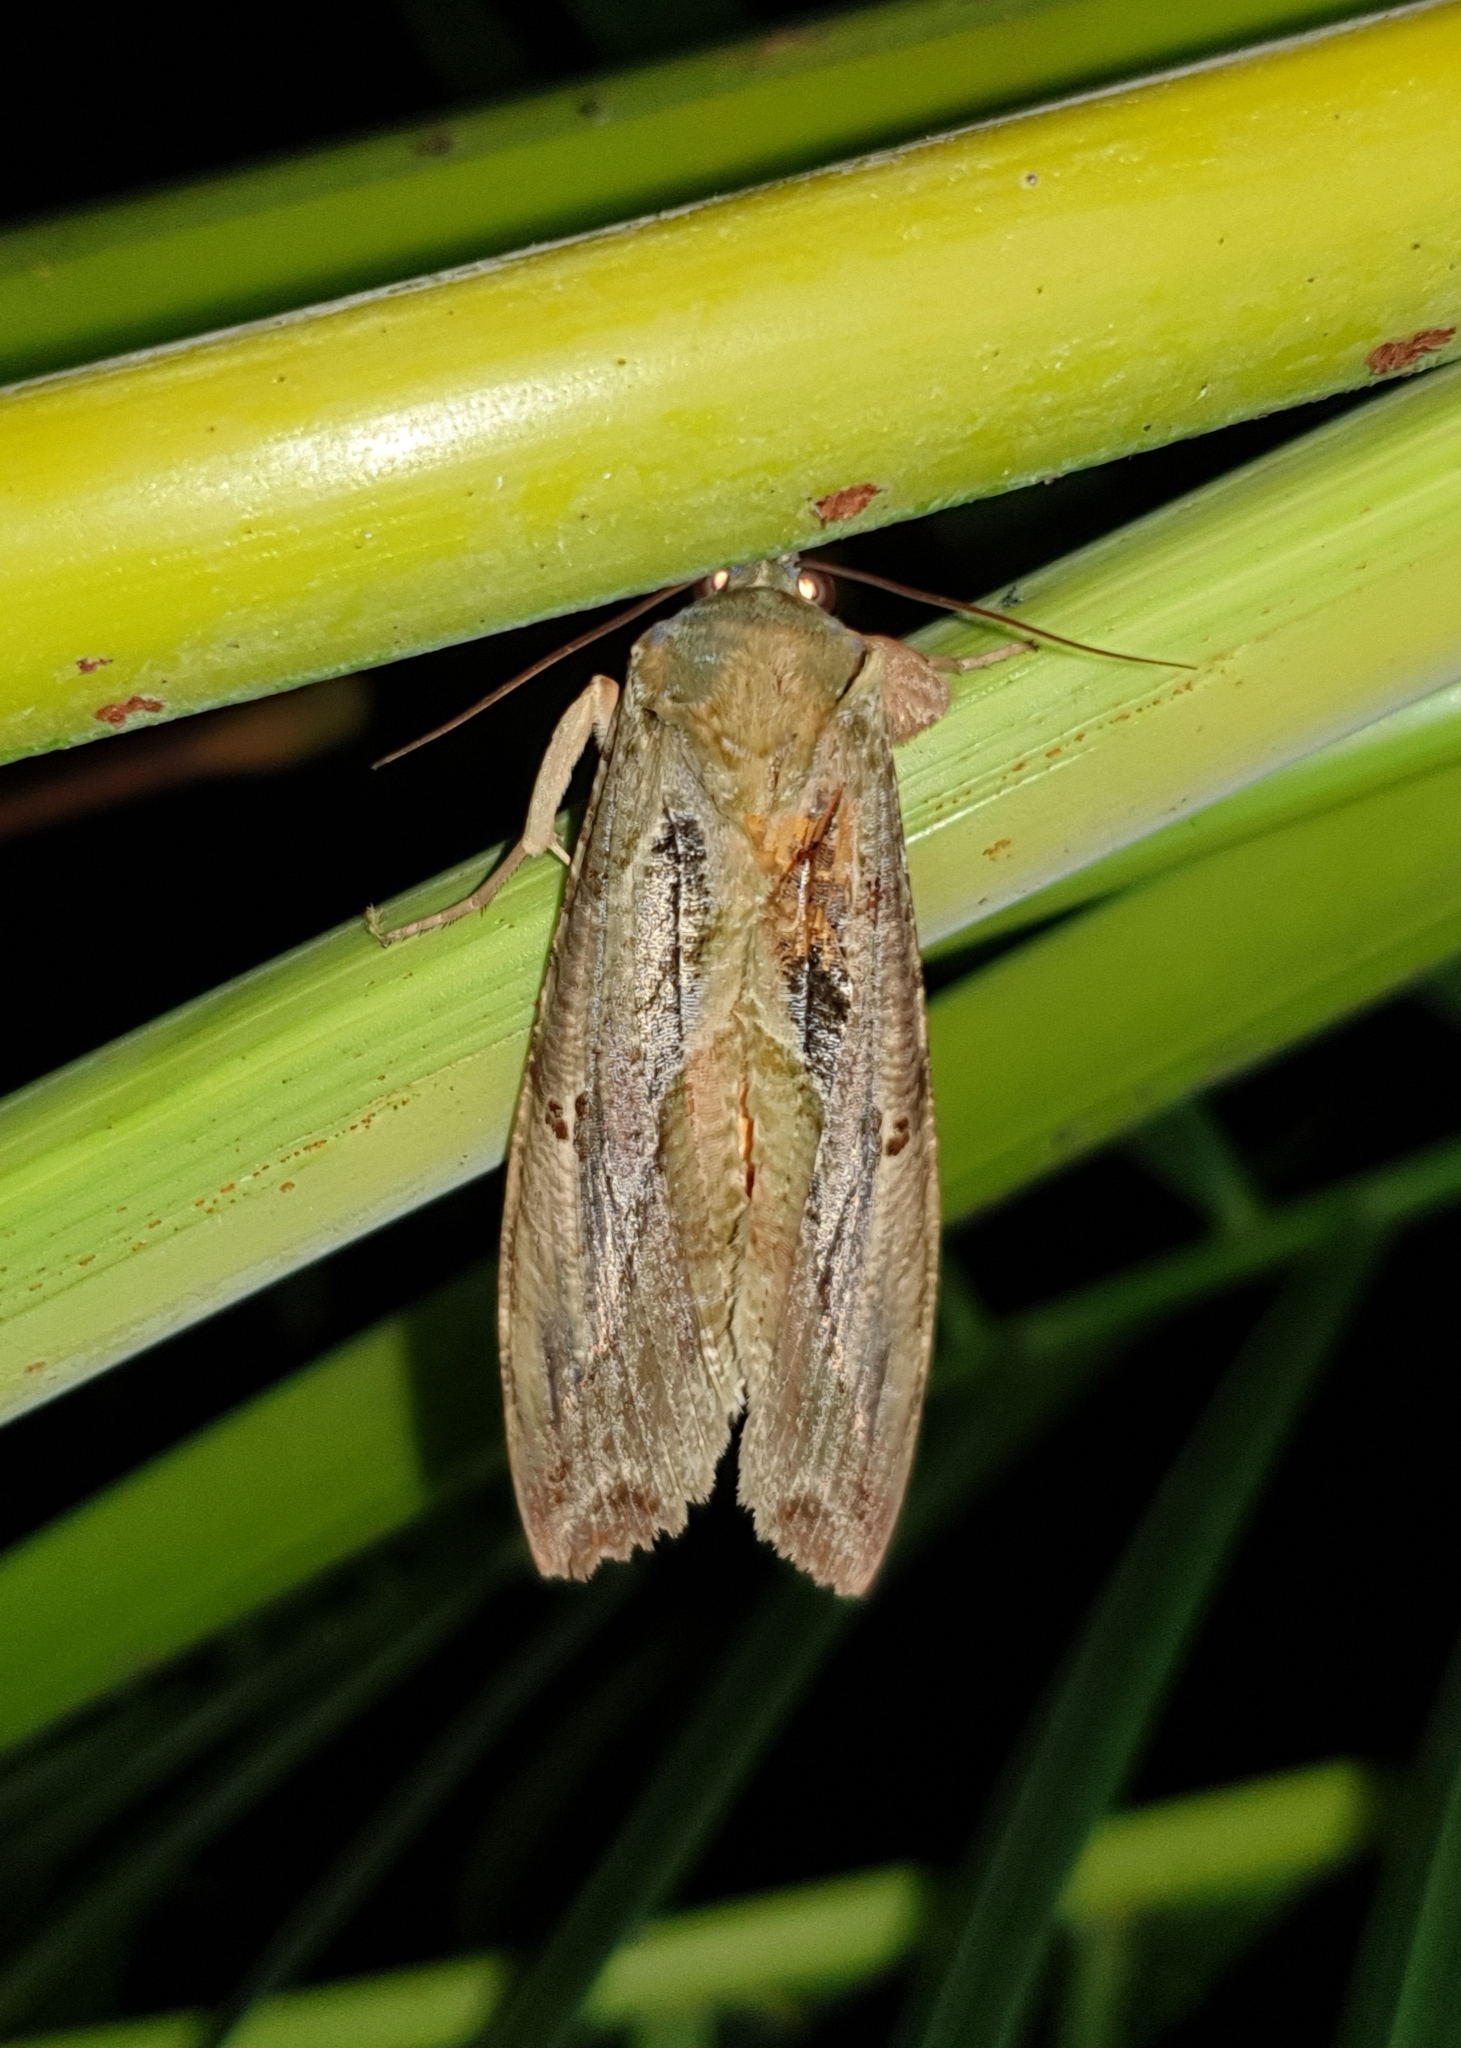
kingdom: Animalia
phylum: Arthropoda
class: Insecta
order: Lepidoptera
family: Erebidae
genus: Eudocima
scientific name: Eudocima materna
